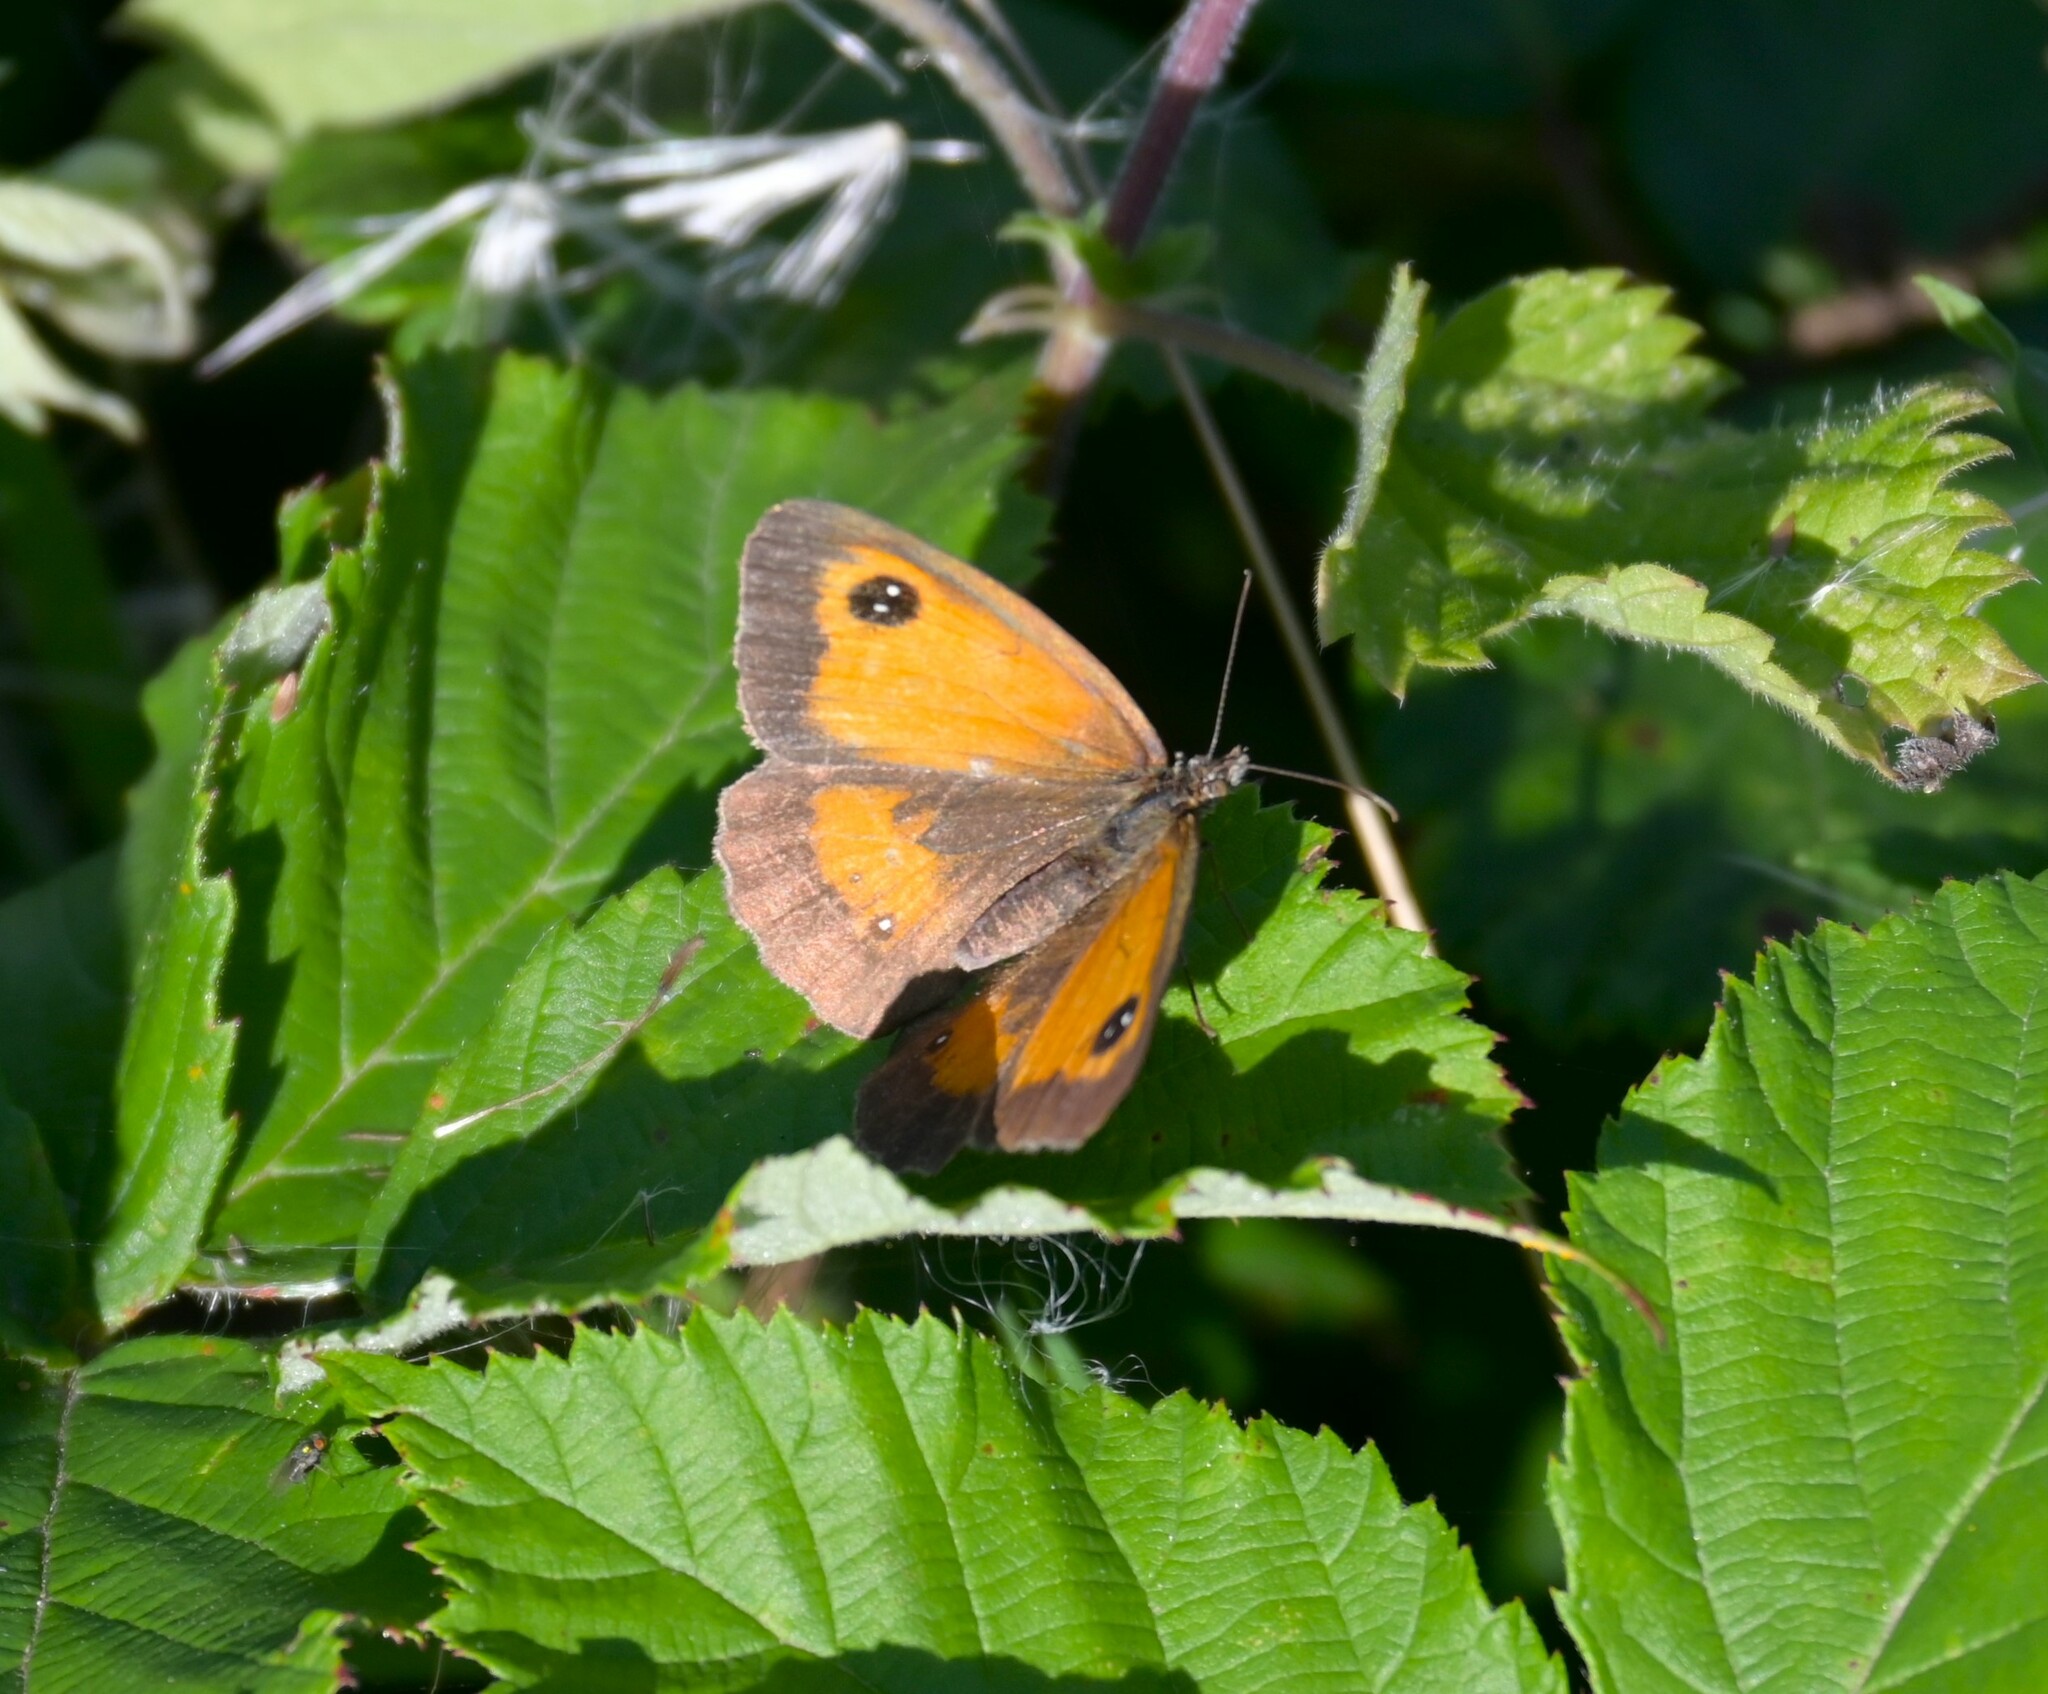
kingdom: Animalia
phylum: Arthropoda
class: Insecta
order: Lepidoptera
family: Nymphalidae
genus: Pyronia
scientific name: Pyronia tithonus
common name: Gatekeeper
